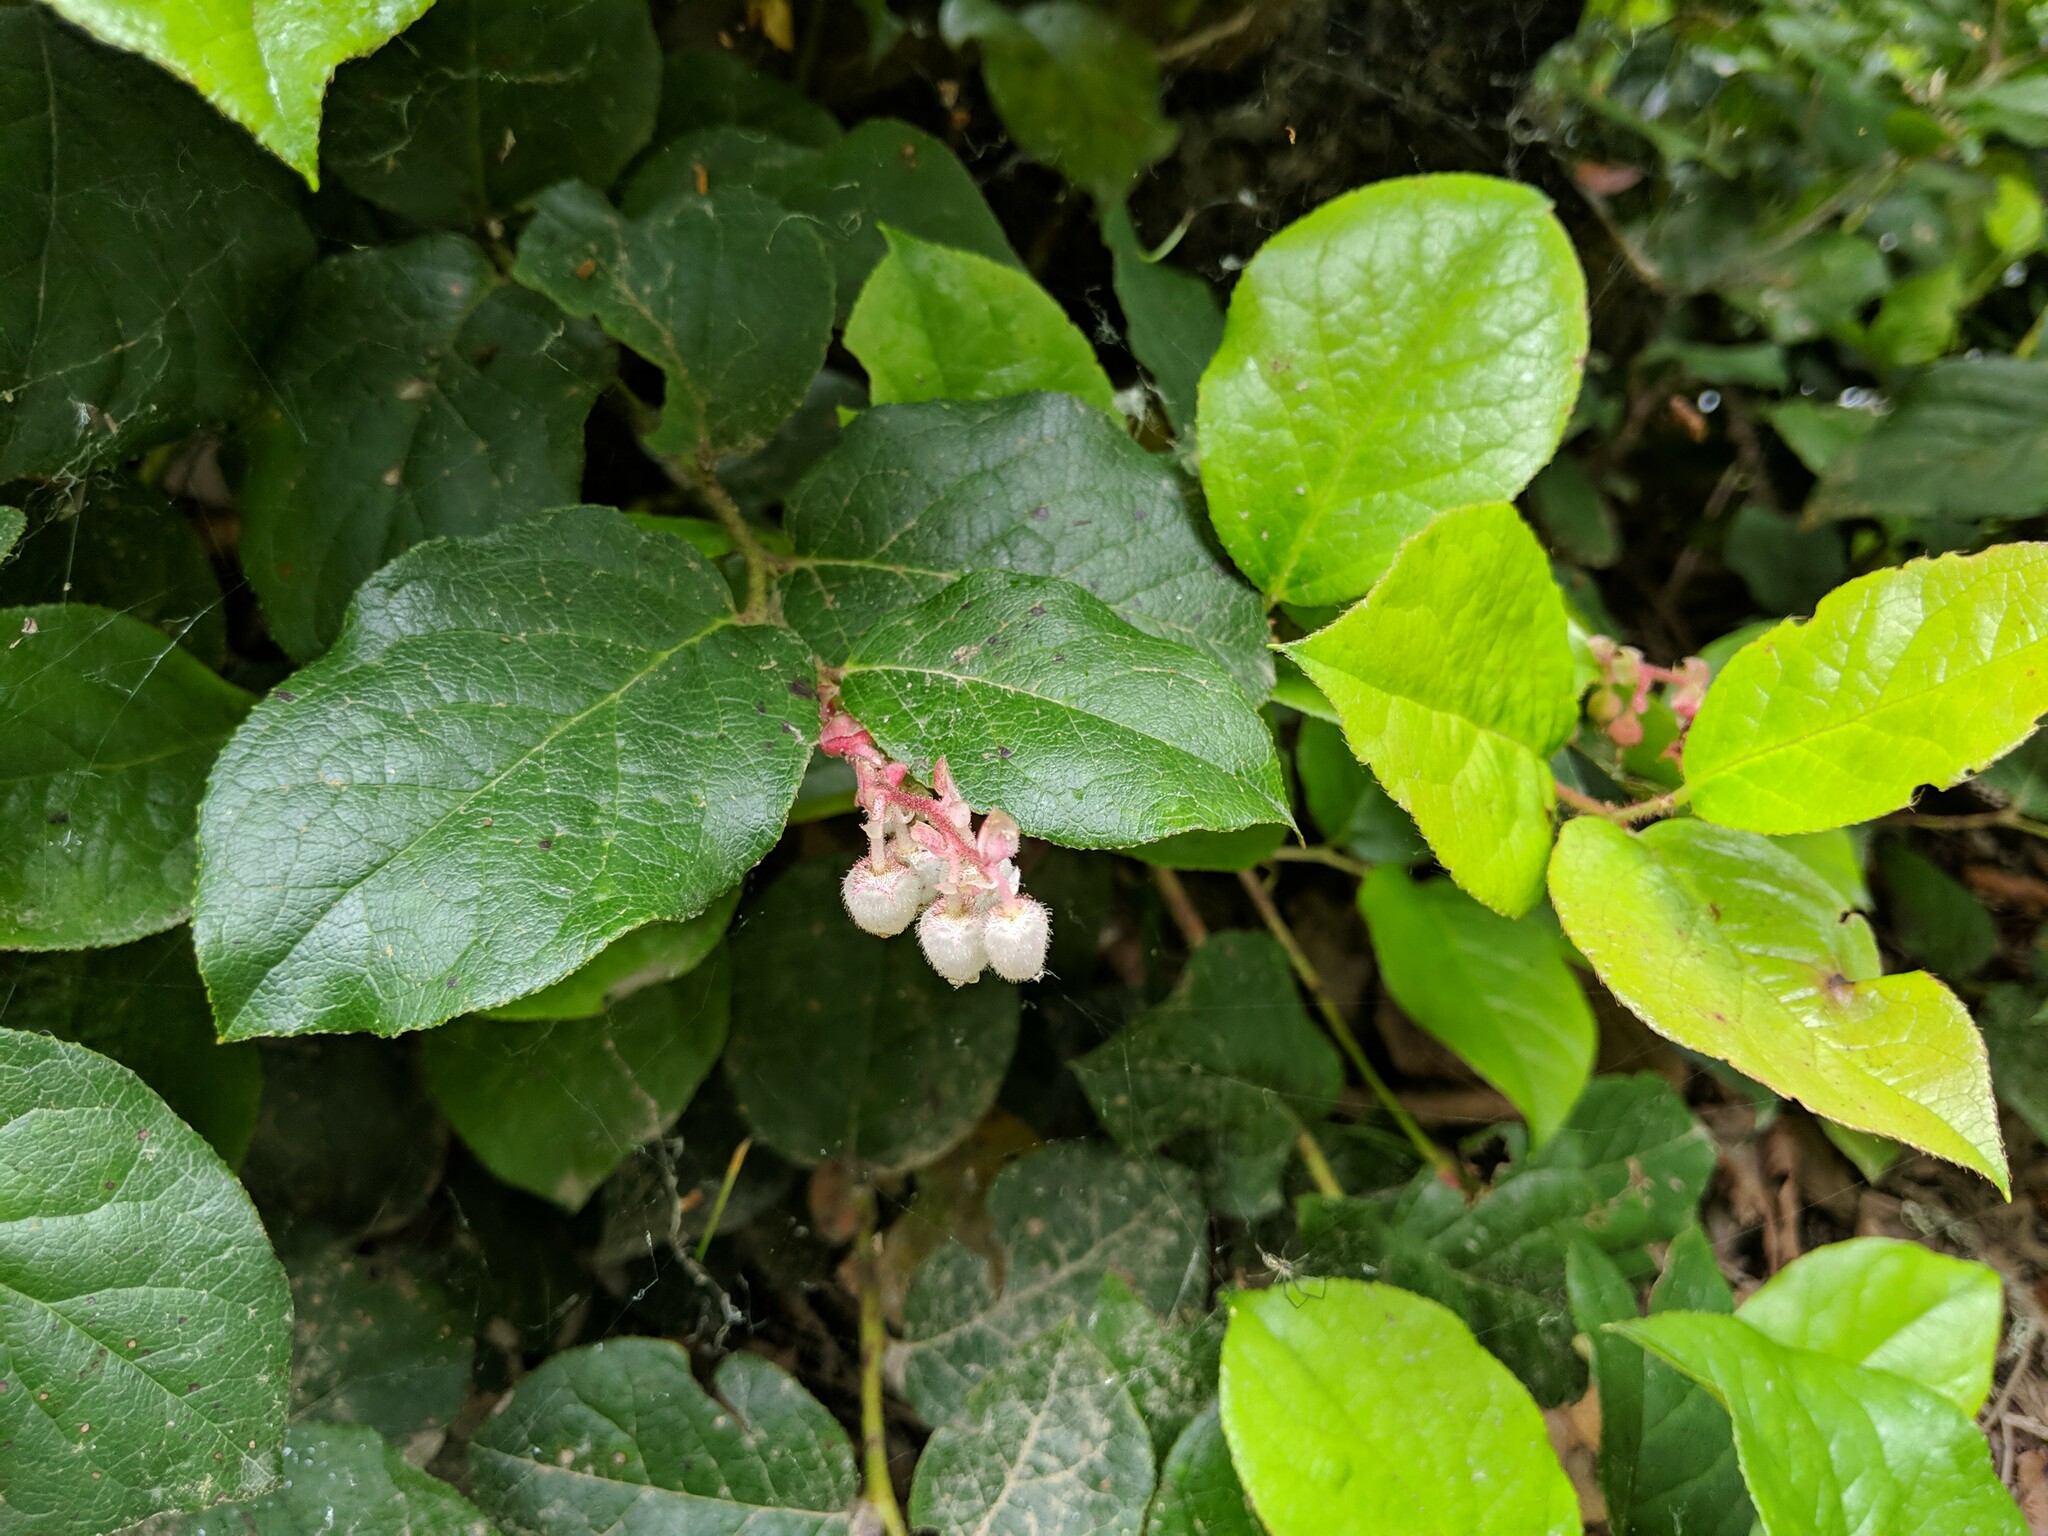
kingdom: Plantae
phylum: Tracheophyta
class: Magnoliopsida
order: Ericales
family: Ericaceae
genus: Gaultheria
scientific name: Gaultheria shallon
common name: Shallon
